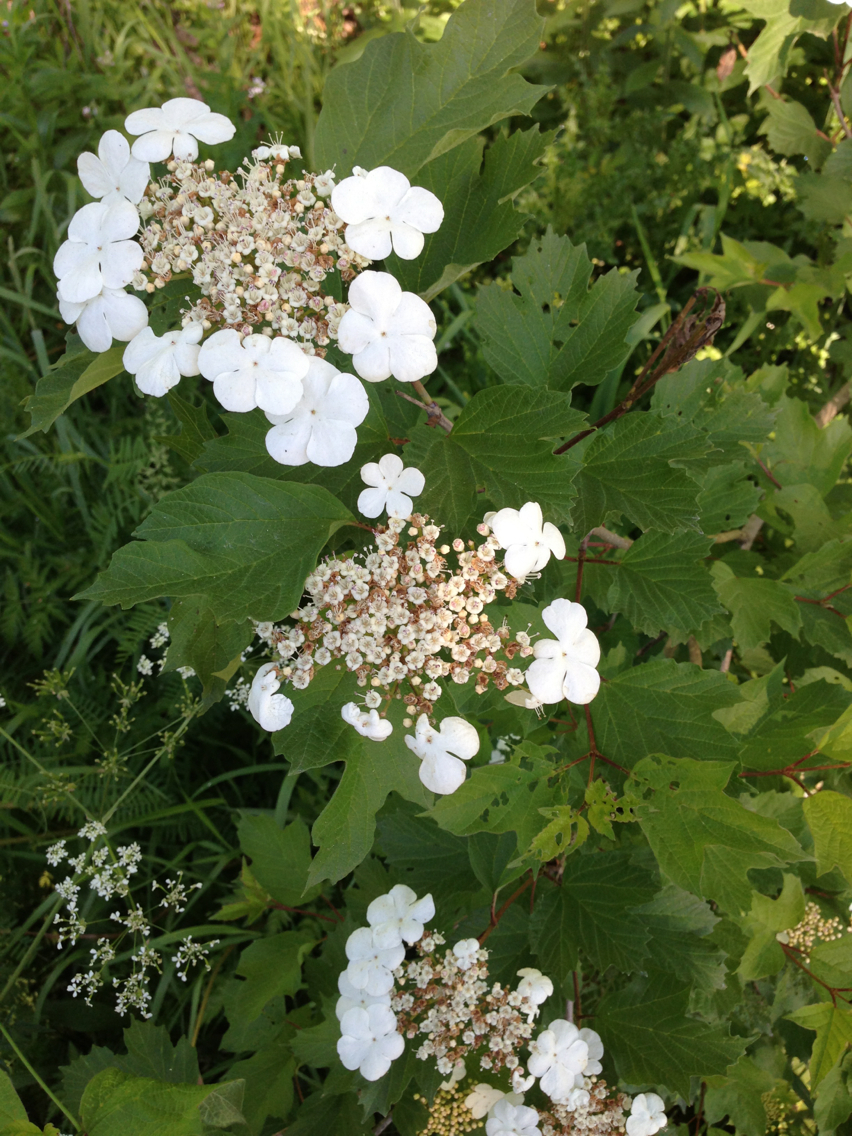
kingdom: Plantae
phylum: Tracheophyta
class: Magnoliopsida
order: Dipsacales
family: Viburnaceae
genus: Viburnum
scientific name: Viburnum opulus
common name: Guelder-rose
